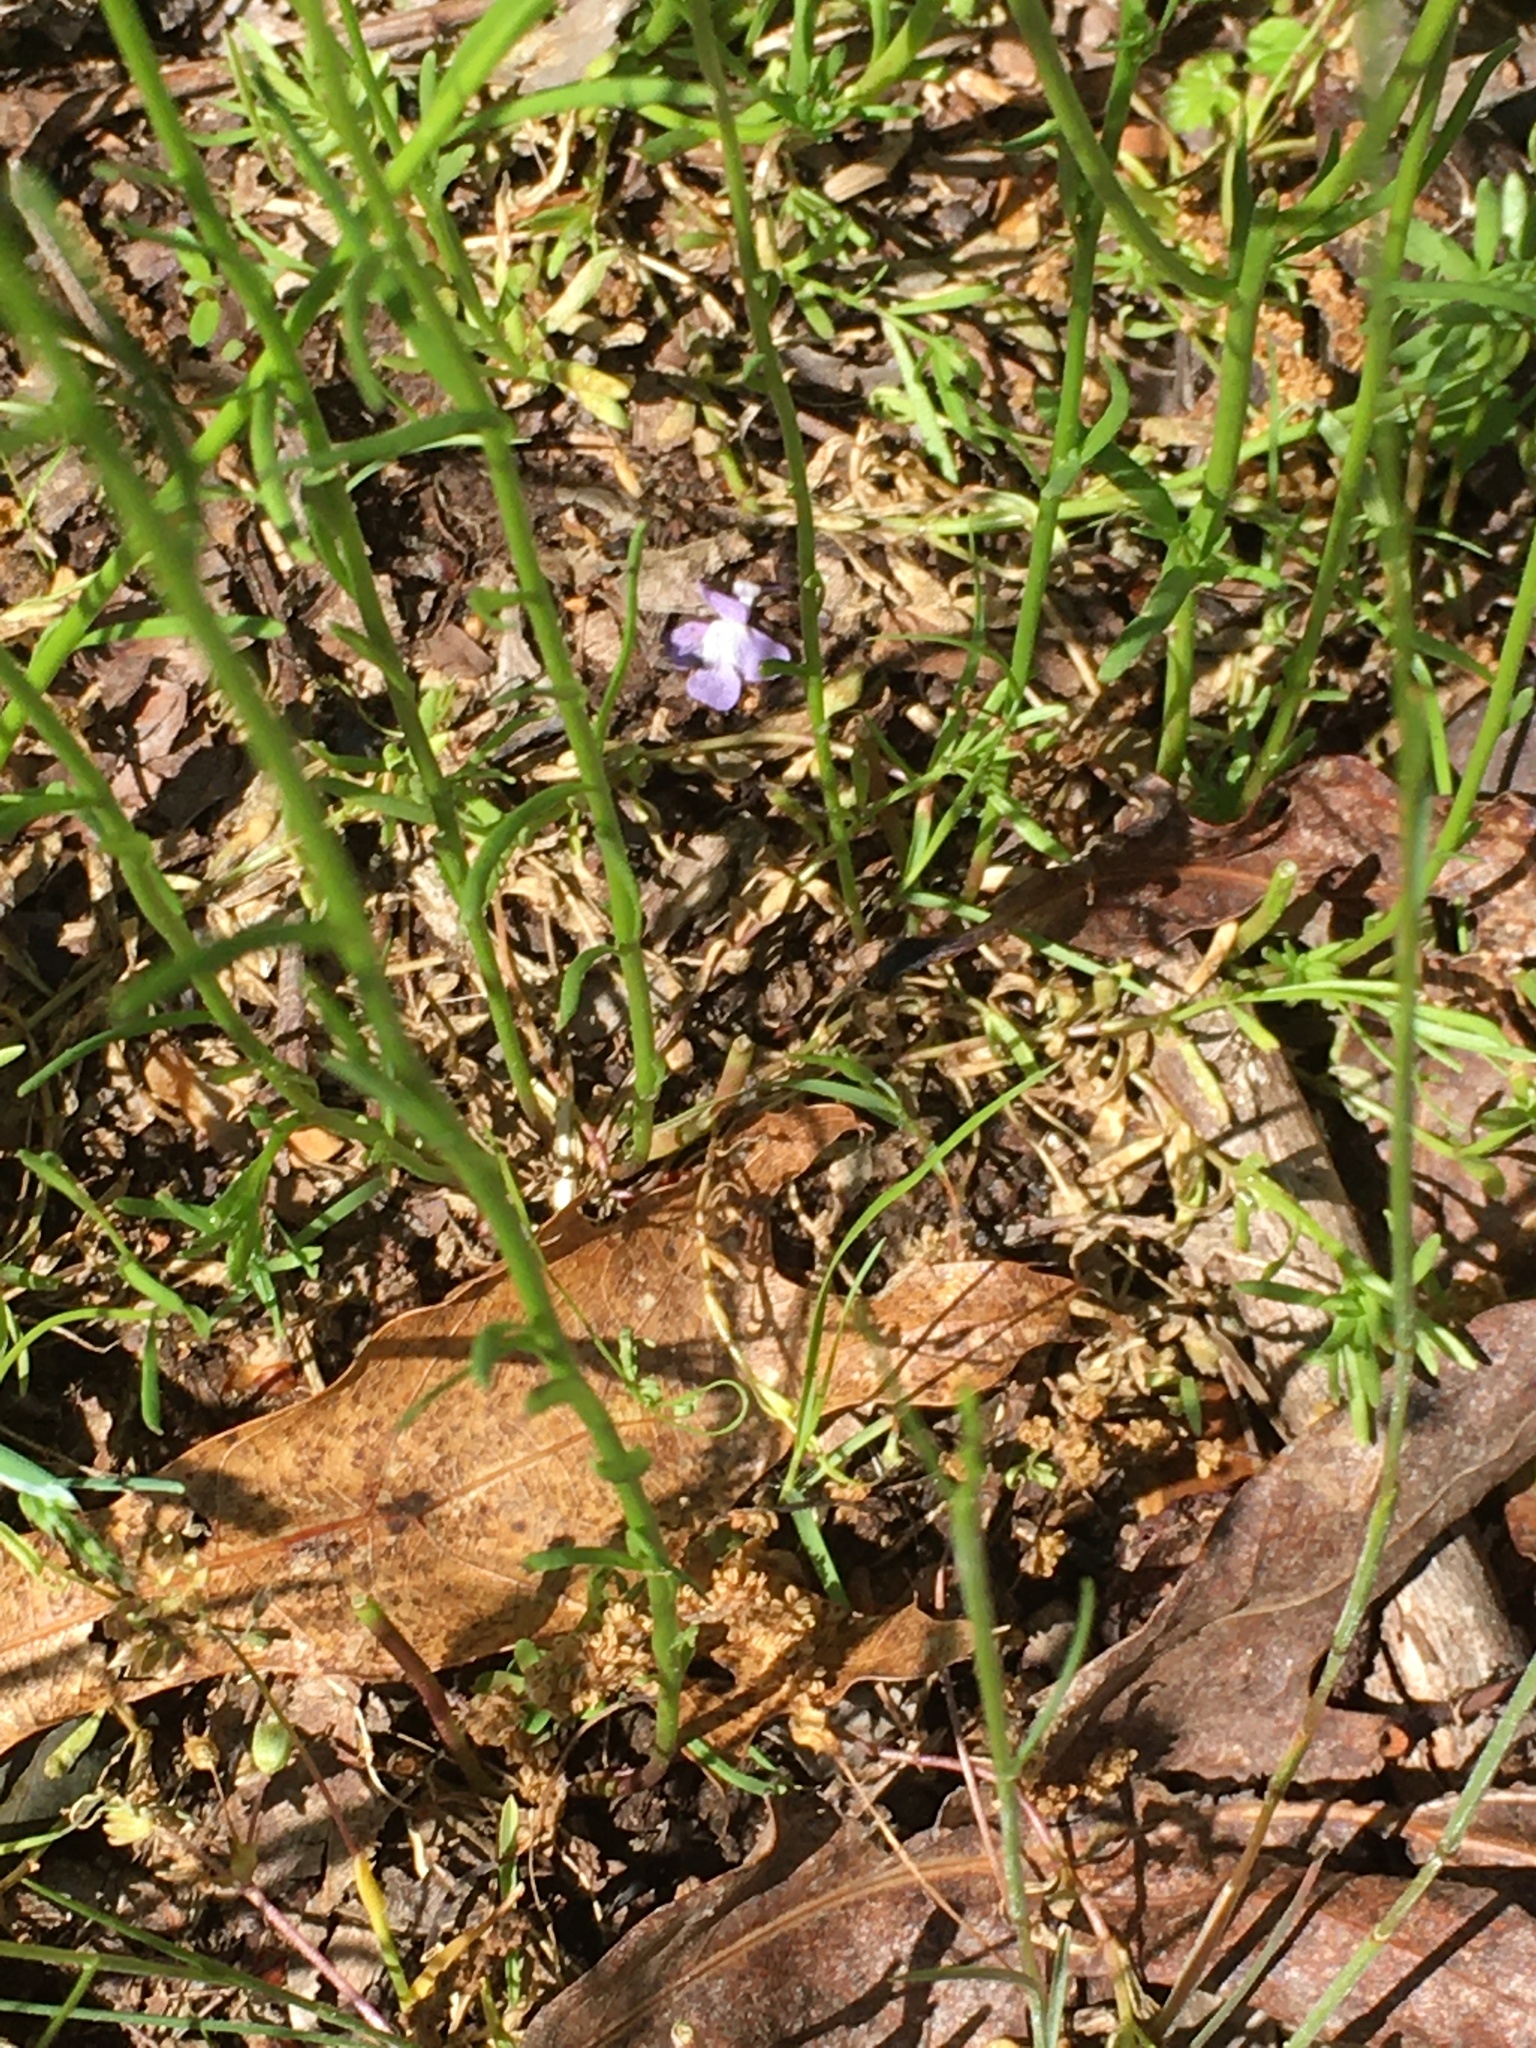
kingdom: Plantae
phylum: Tracheophyta
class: Magnoliopsida
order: Lamiales
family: Plantaginaceae
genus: Nuttallanthus
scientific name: Nuttallanthus canadensis
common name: Blue toadflax
